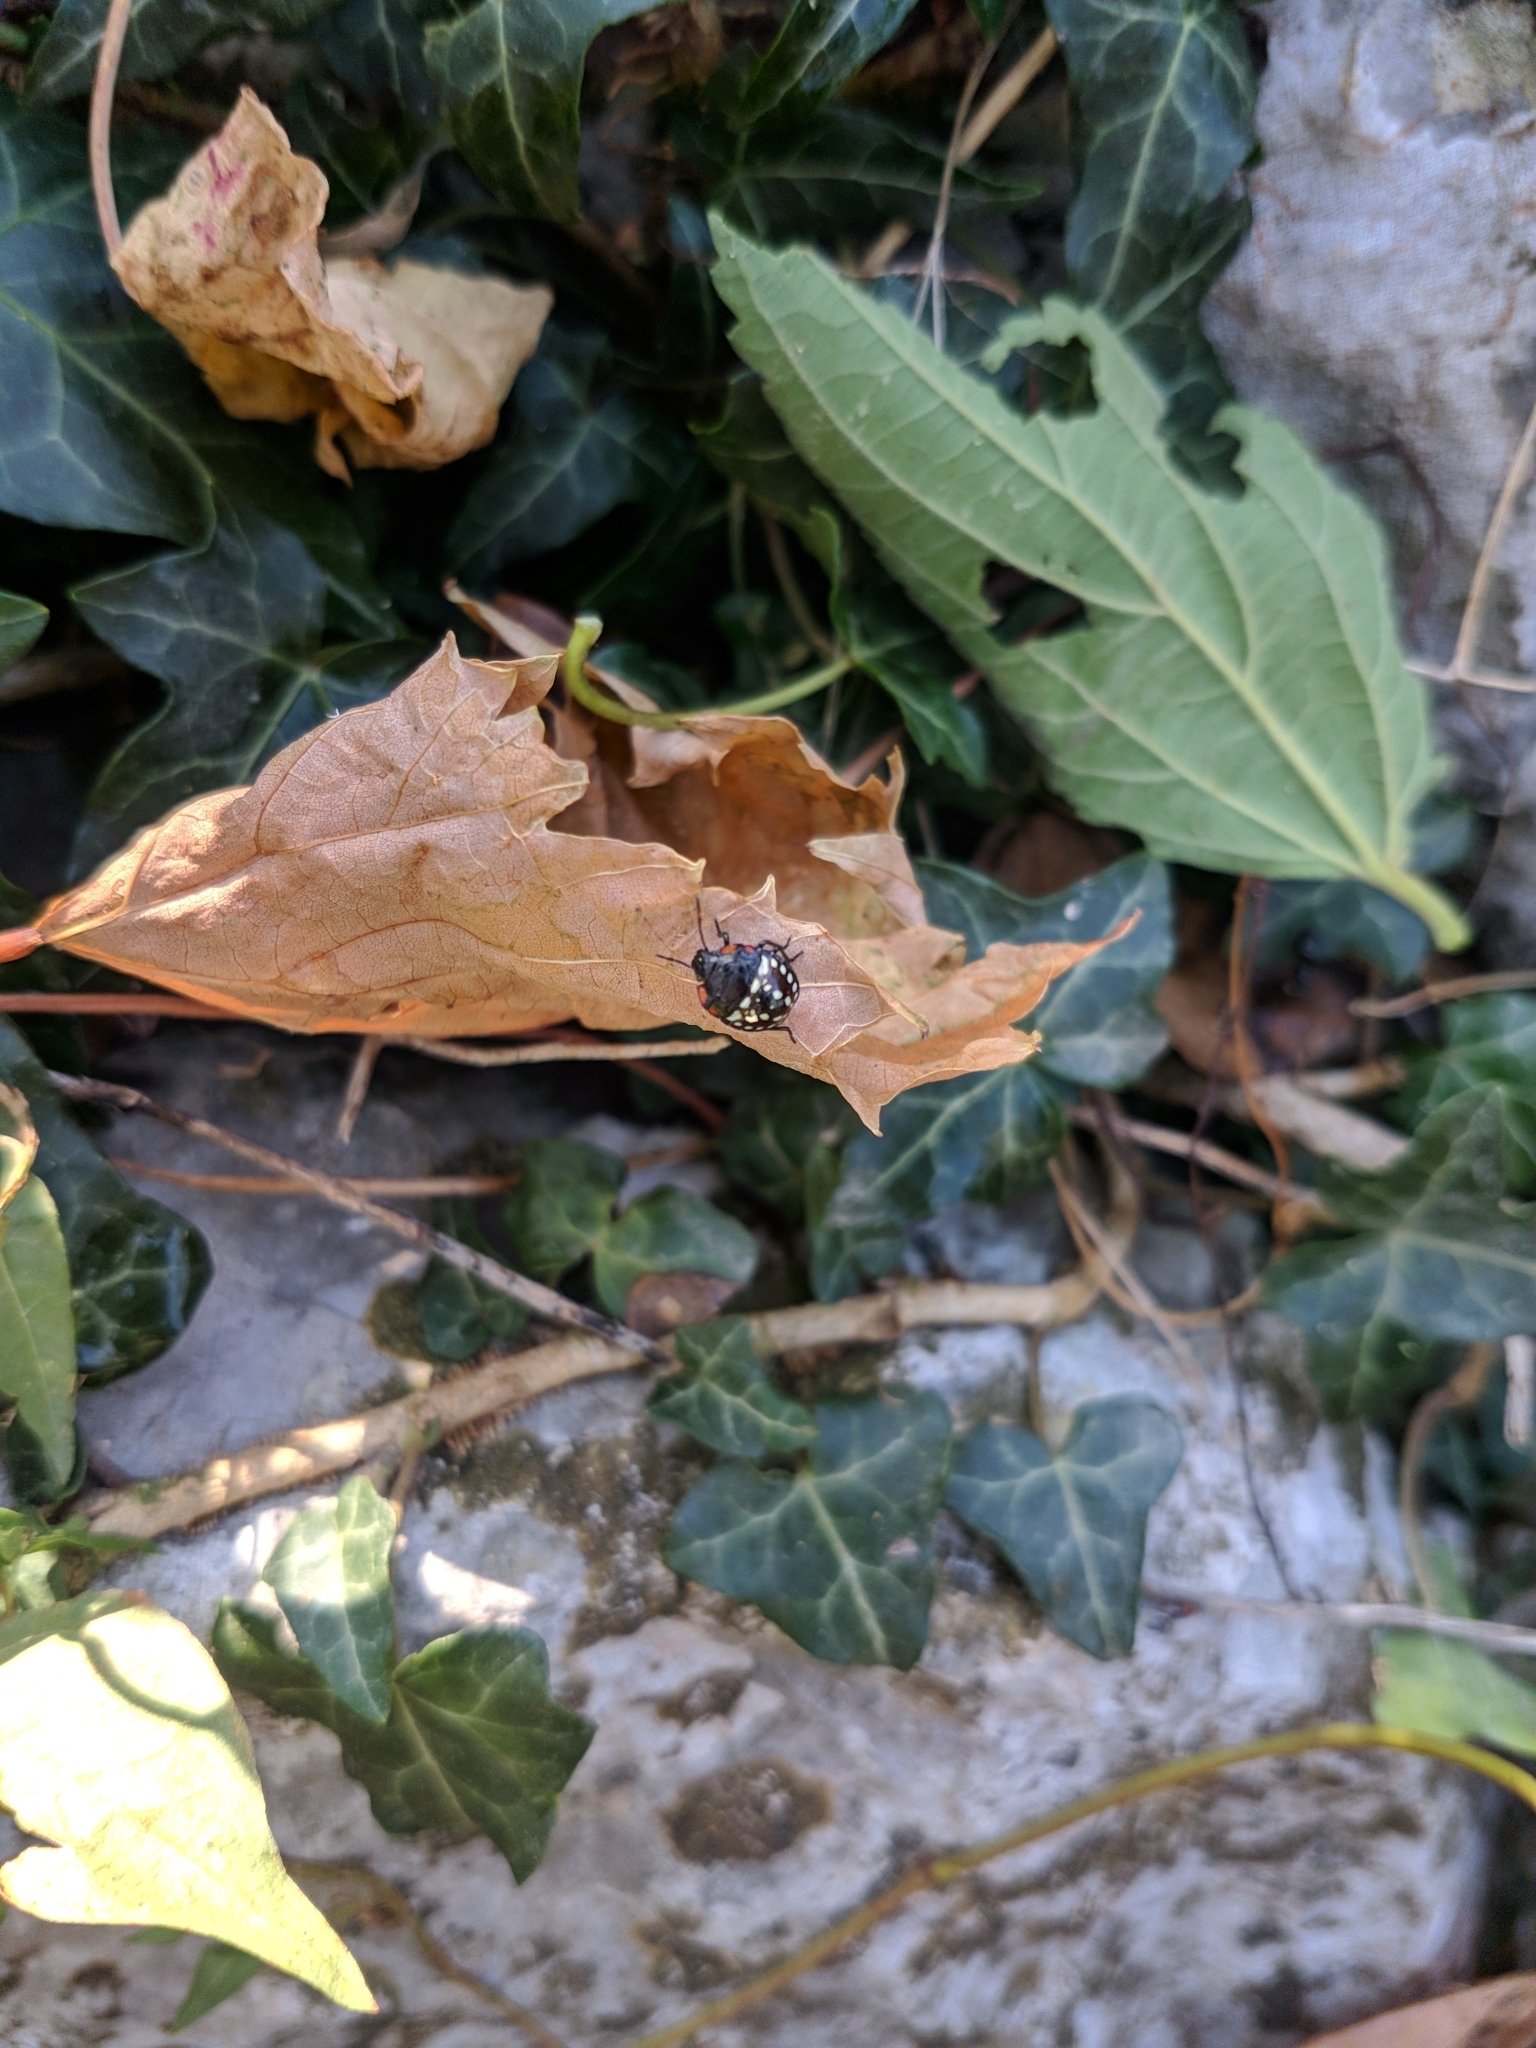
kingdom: Animalia
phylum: Arthropoda
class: Insecta
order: Hemiptera
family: Pentatomidae
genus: Nezara
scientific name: Nezara viridula
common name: Southern green stink bug
